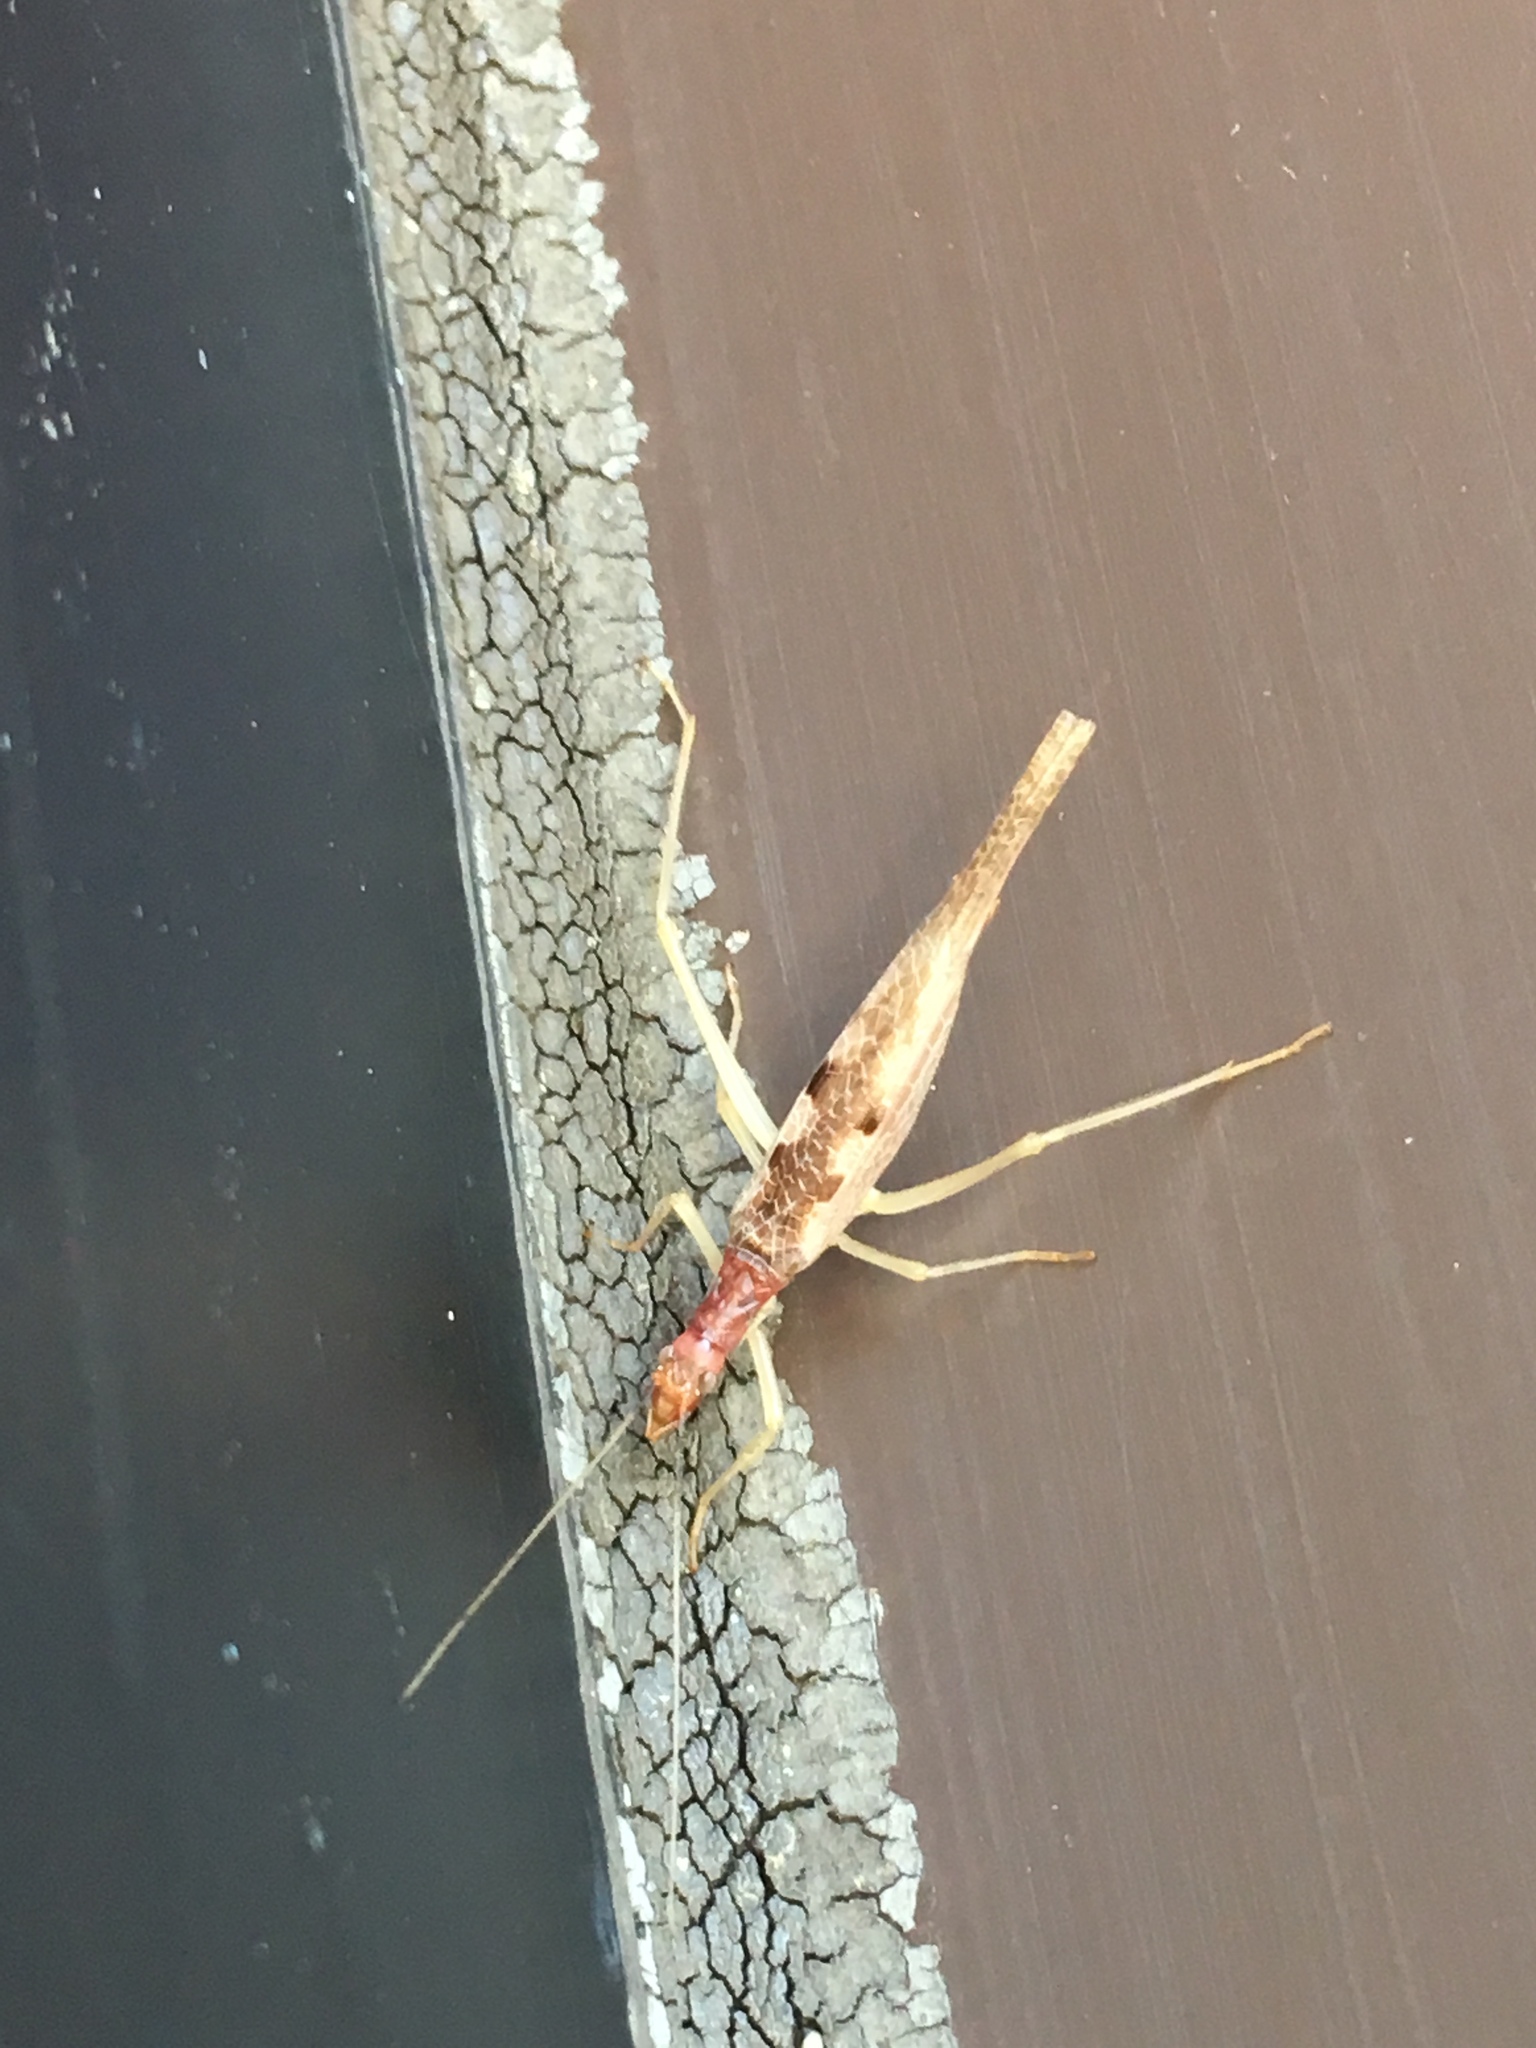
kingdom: Animalia
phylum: Arthropoda
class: Insecta
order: Orthoptera
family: Gryllidae
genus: Neoxabea
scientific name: Neoxabea bipunctata
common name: Two-spotted tree cricket
